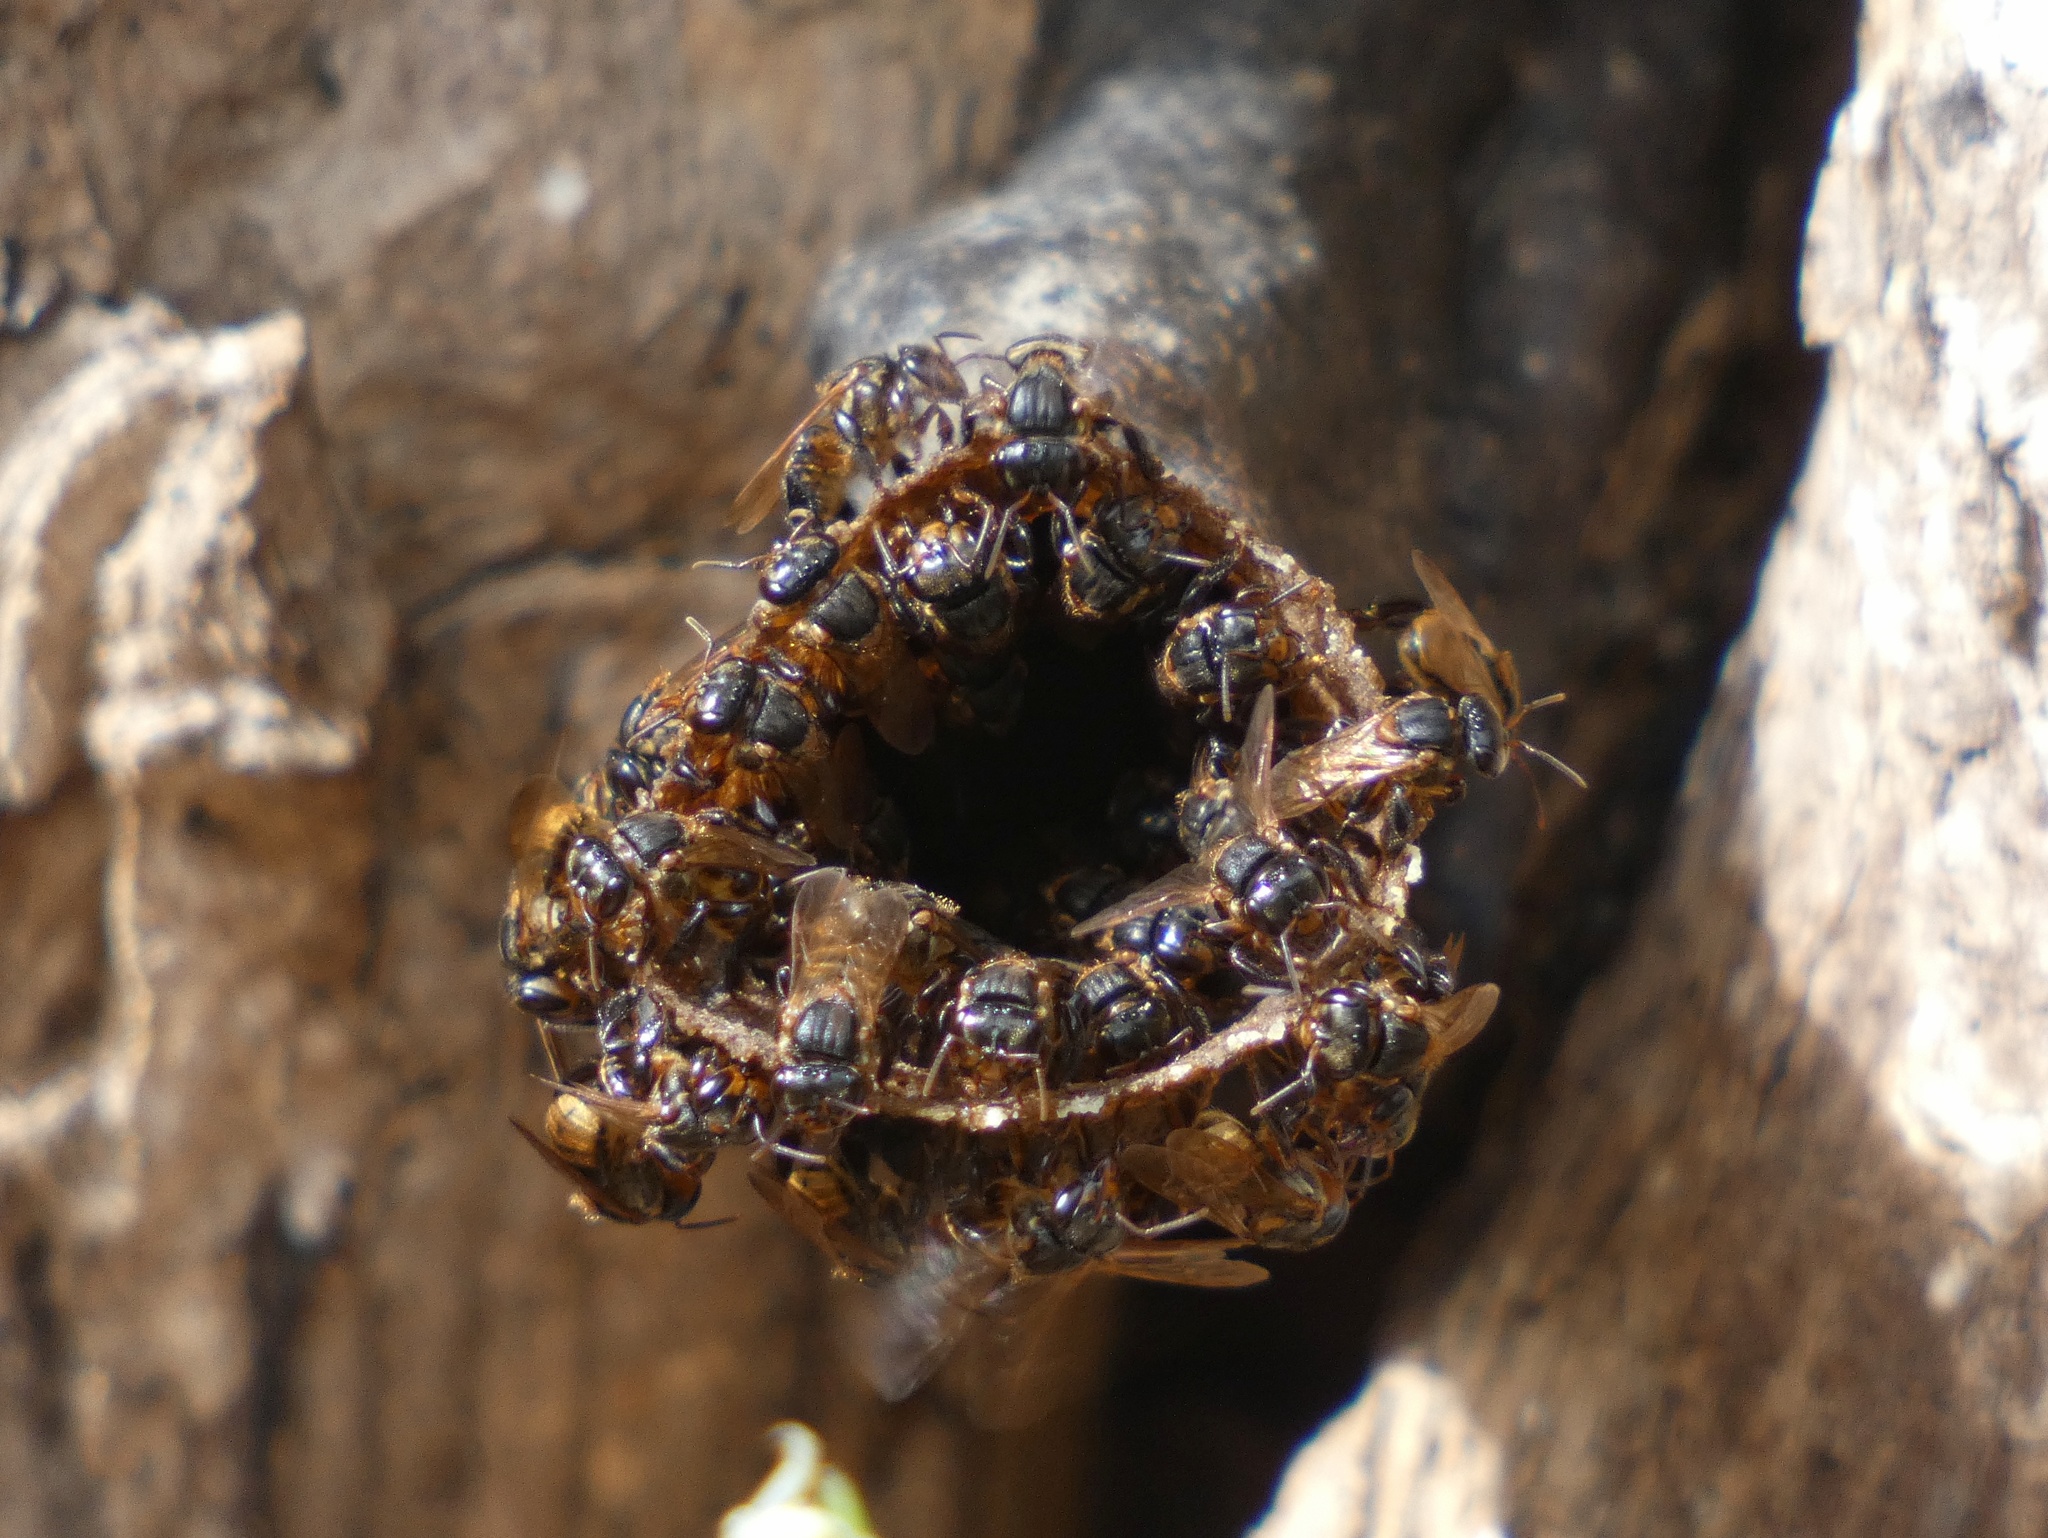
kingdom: Animalia
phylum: Arthropoda
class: Insecta
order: Hymenoptera
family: Apidae
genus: Scaptotrigona
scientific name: Scaptotrigona pectoralis
